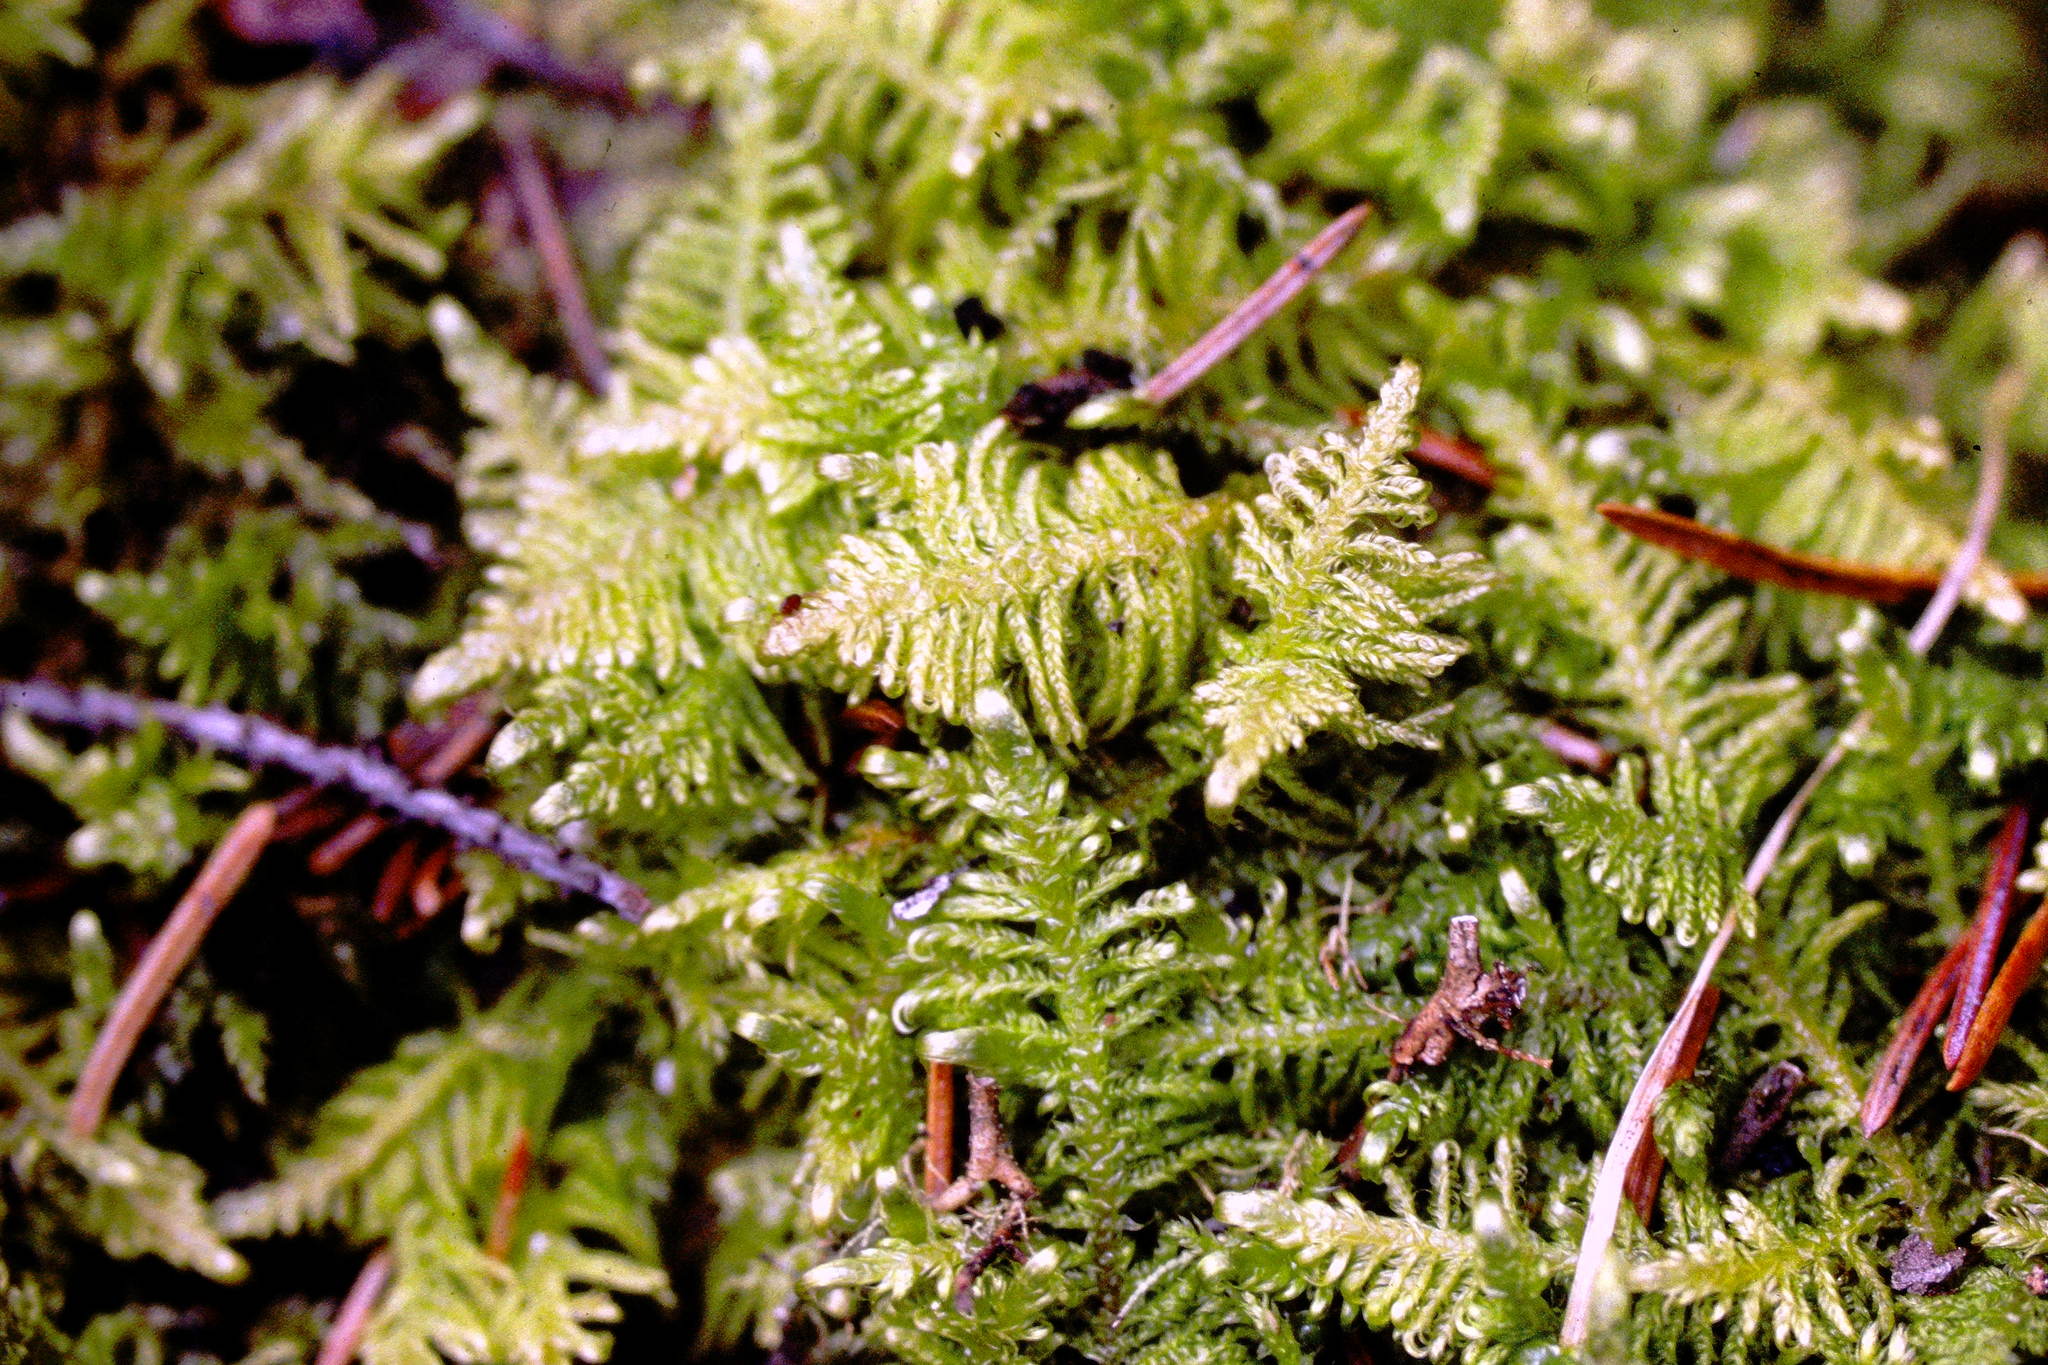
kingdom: Plantae
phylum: Bryophyta
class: Bryopsida
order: Hypnales
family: Pylaisiaceae
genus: Ptilium
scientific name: Ptilium crista-castrensis
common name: Knight's plume moss
